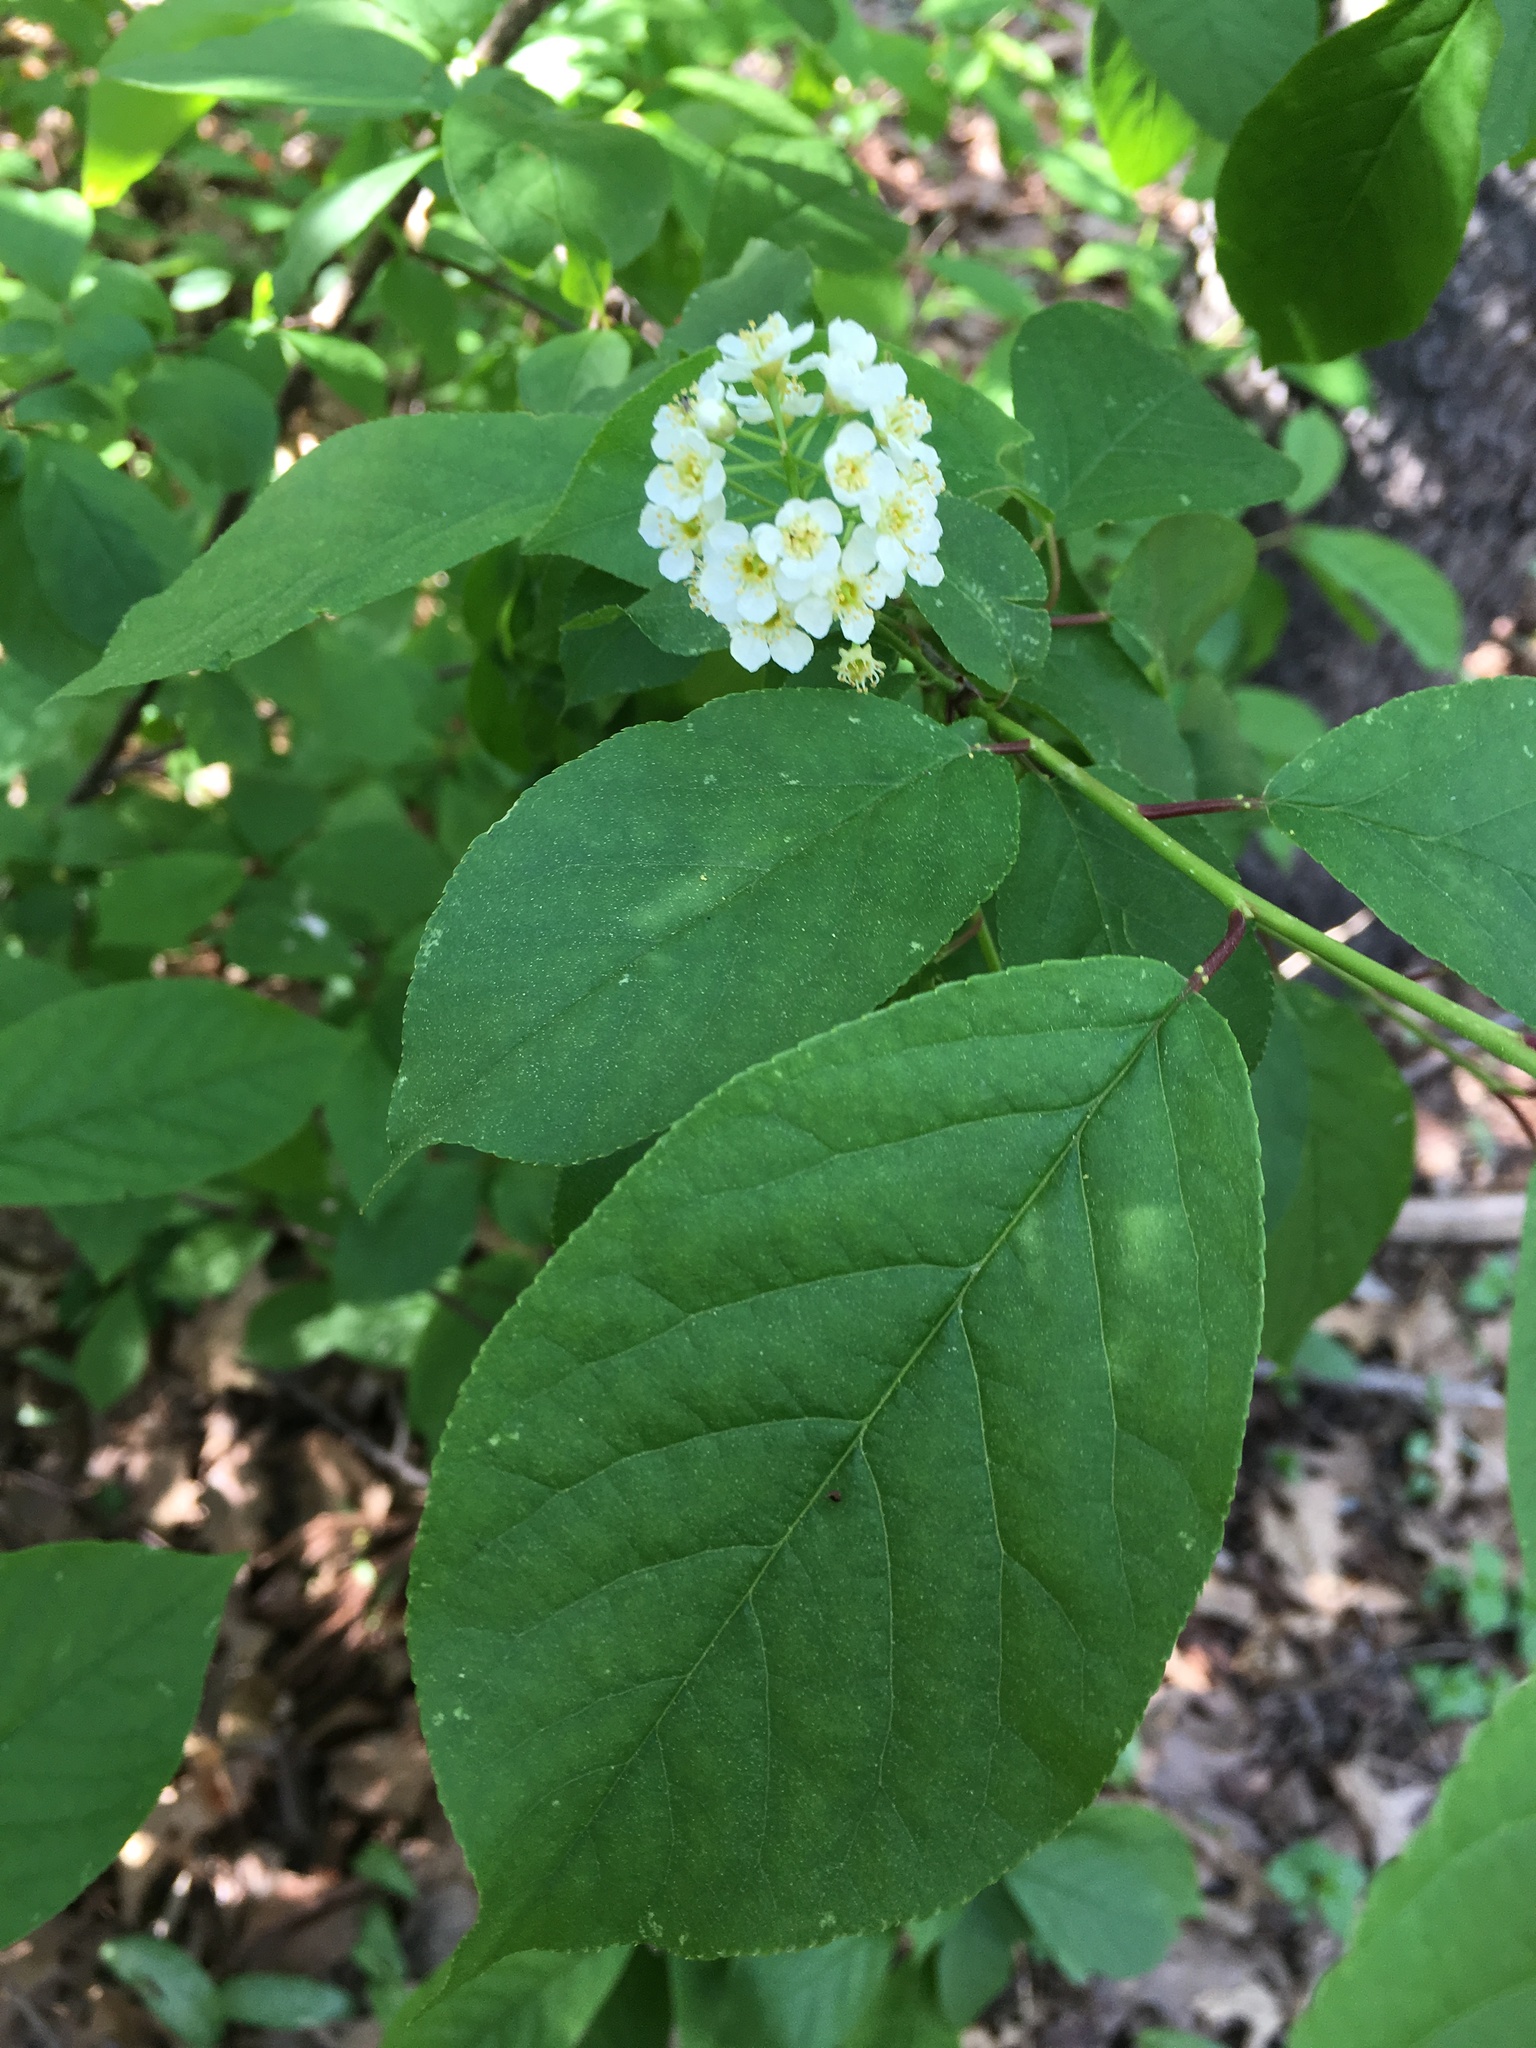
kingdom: Plantae
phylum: Tracheophyta
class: Magnoliopsida
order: Rosales
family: Rosaceae
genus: Prunus
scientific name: Prunus virginiana
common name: Chokecherry
